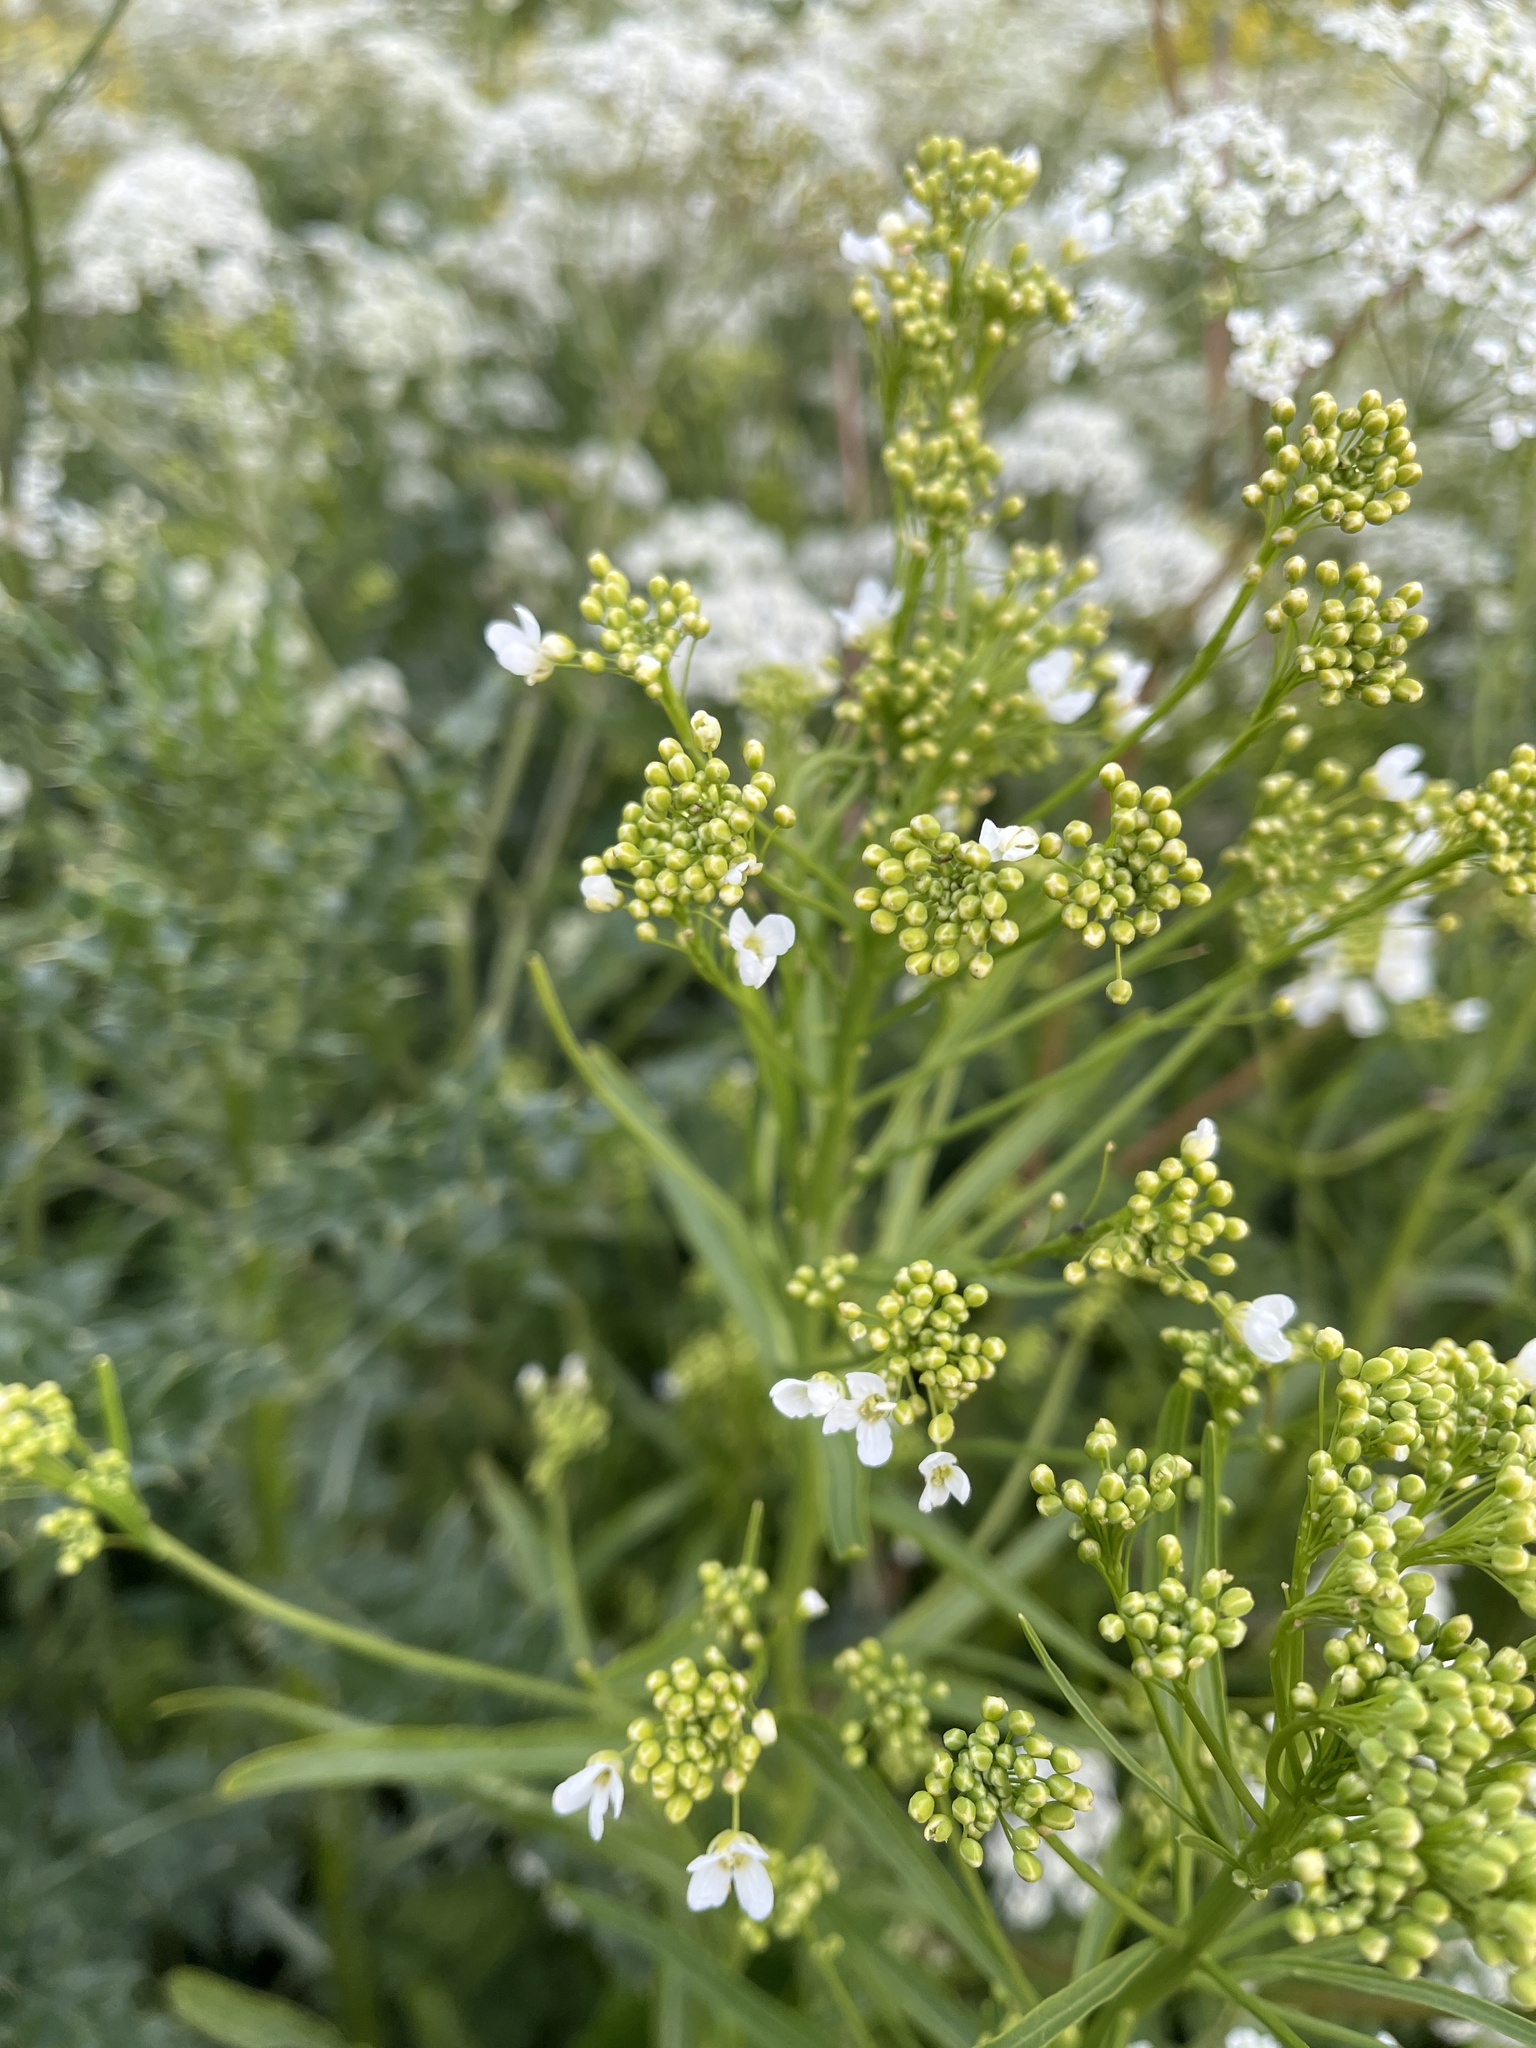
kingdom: Plantae
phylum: Tracheophyta
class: Magnoliopsida
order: Brassicales
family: Brassicaceae
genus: Armoracia
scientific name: Armoracia rusticana
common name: Horseradish
